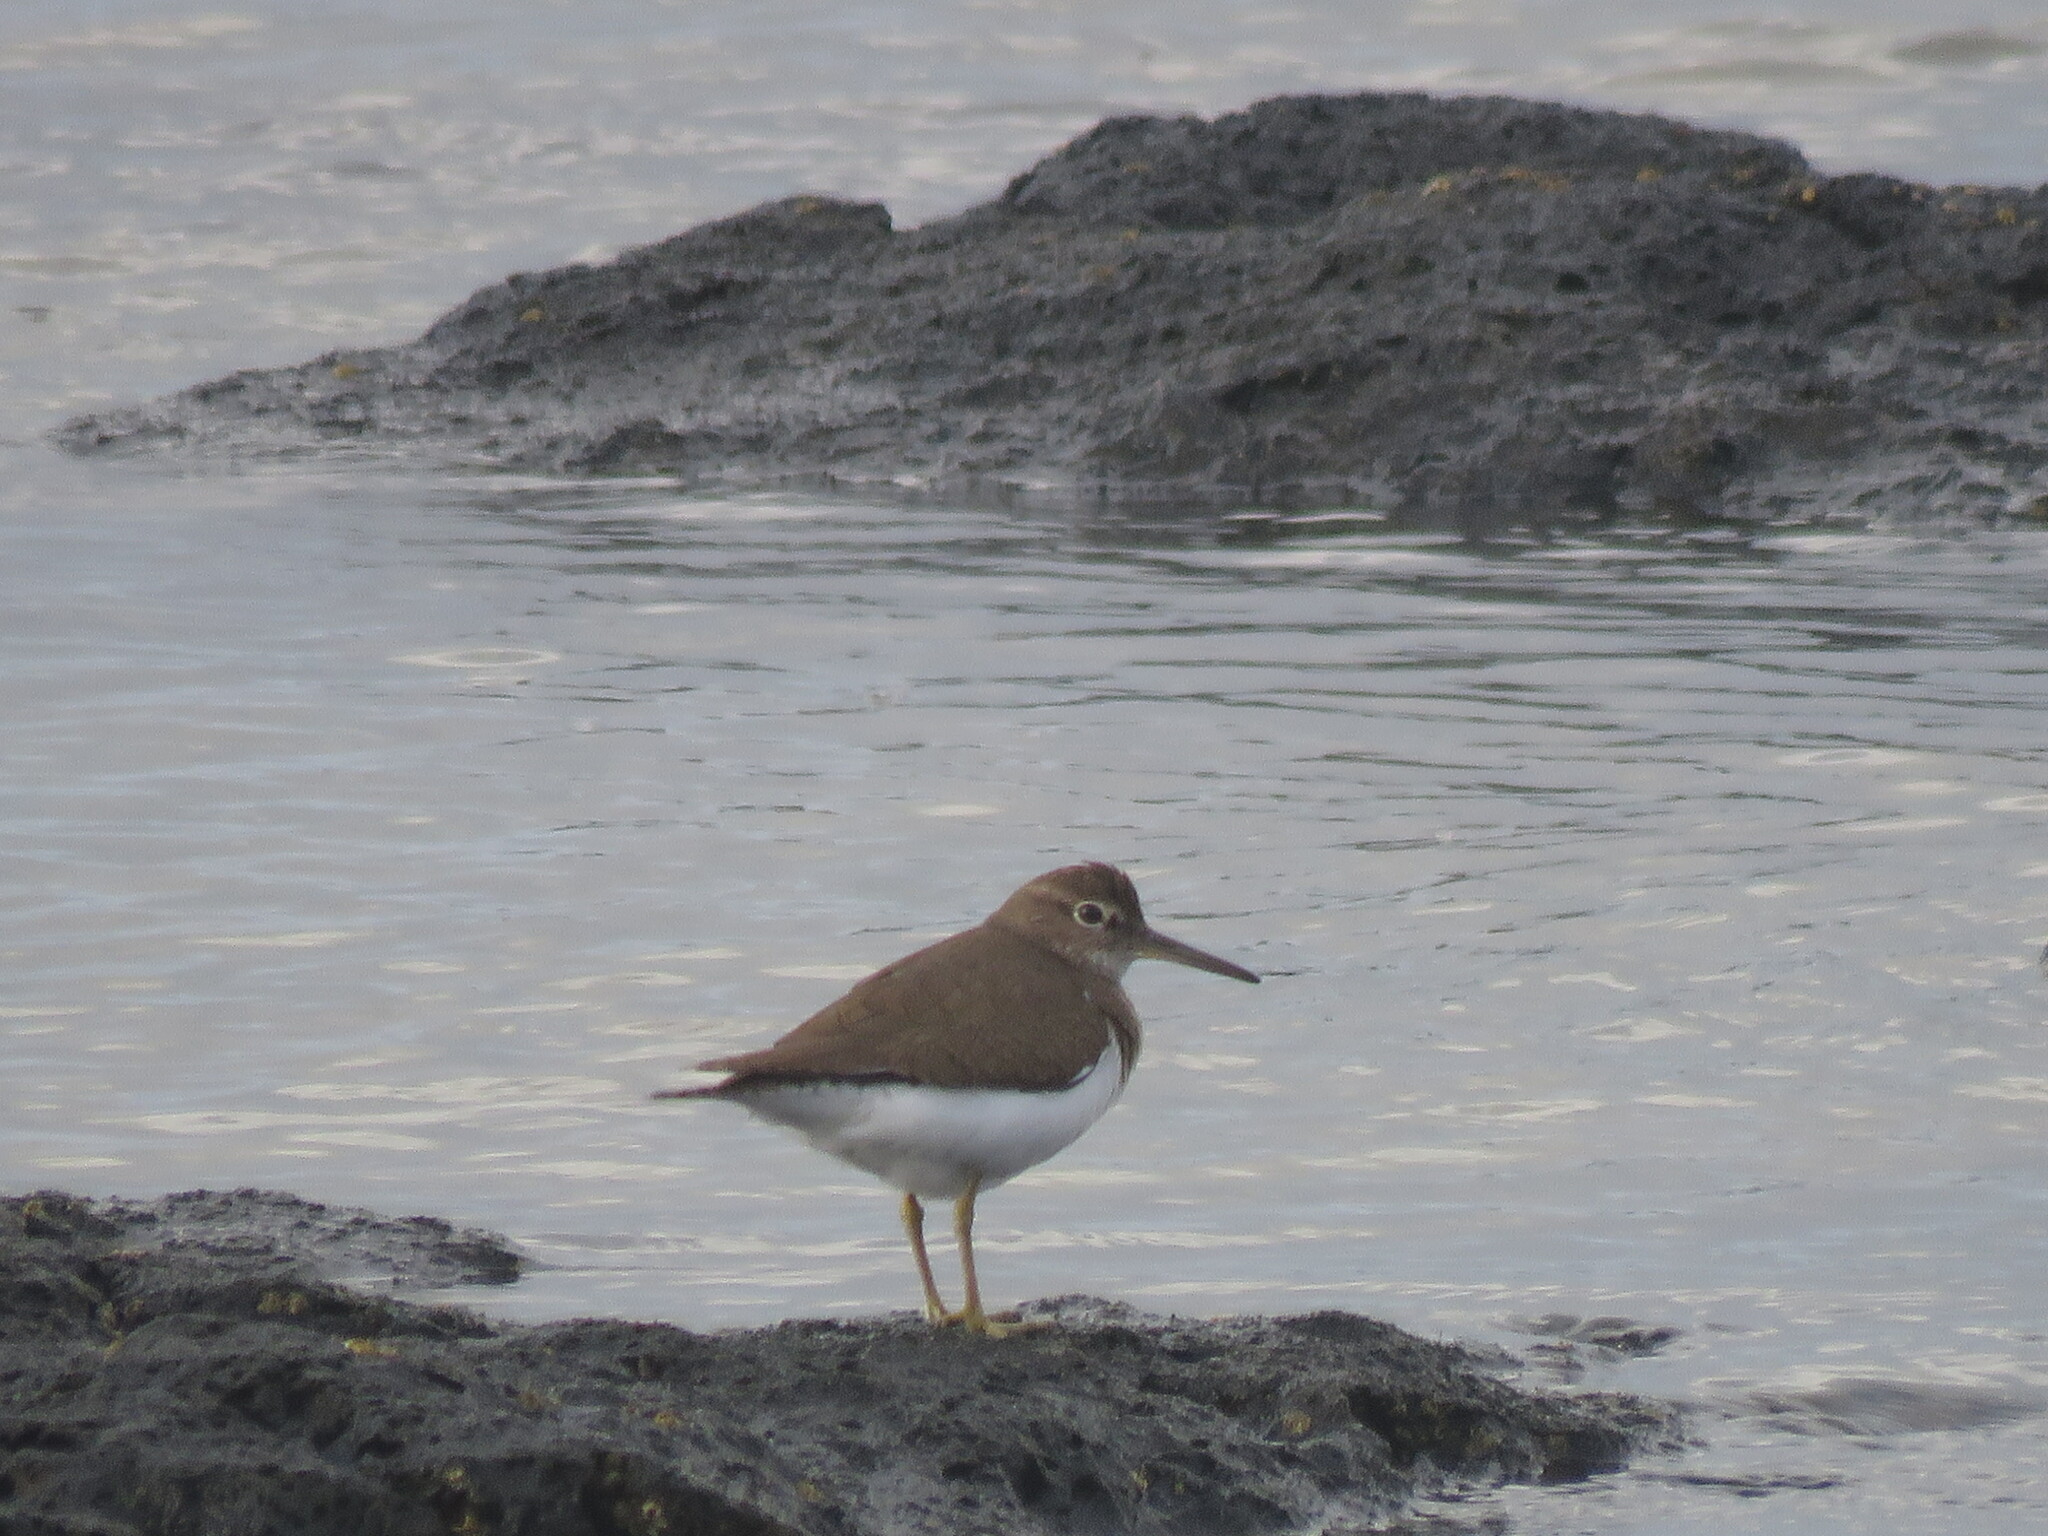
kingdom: Animalia
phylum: Chordata
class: Aves
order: Charadriiformes
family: Scolopacidae
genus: Actitis
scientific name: Actitis hypoleucos
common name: Common sandpiper
